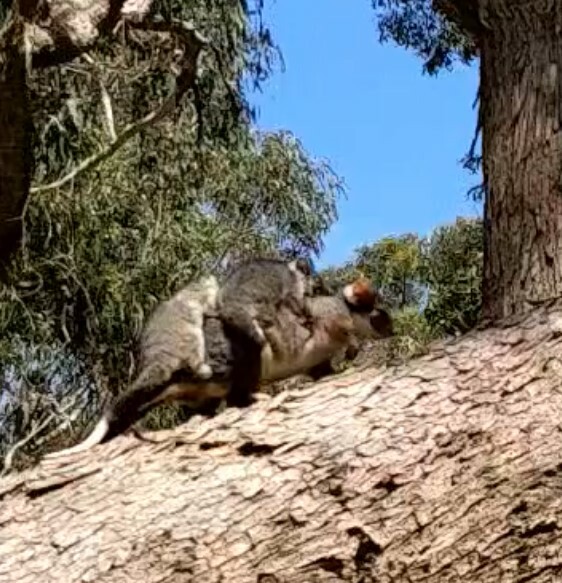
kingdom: Animalia
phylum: Chordata
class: Mammalia
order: Diprotodontia
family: Pseudocheiridae
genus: Pseudocheirus
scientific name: Pseudocheirus peregrinus
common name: Common ringtail possum
